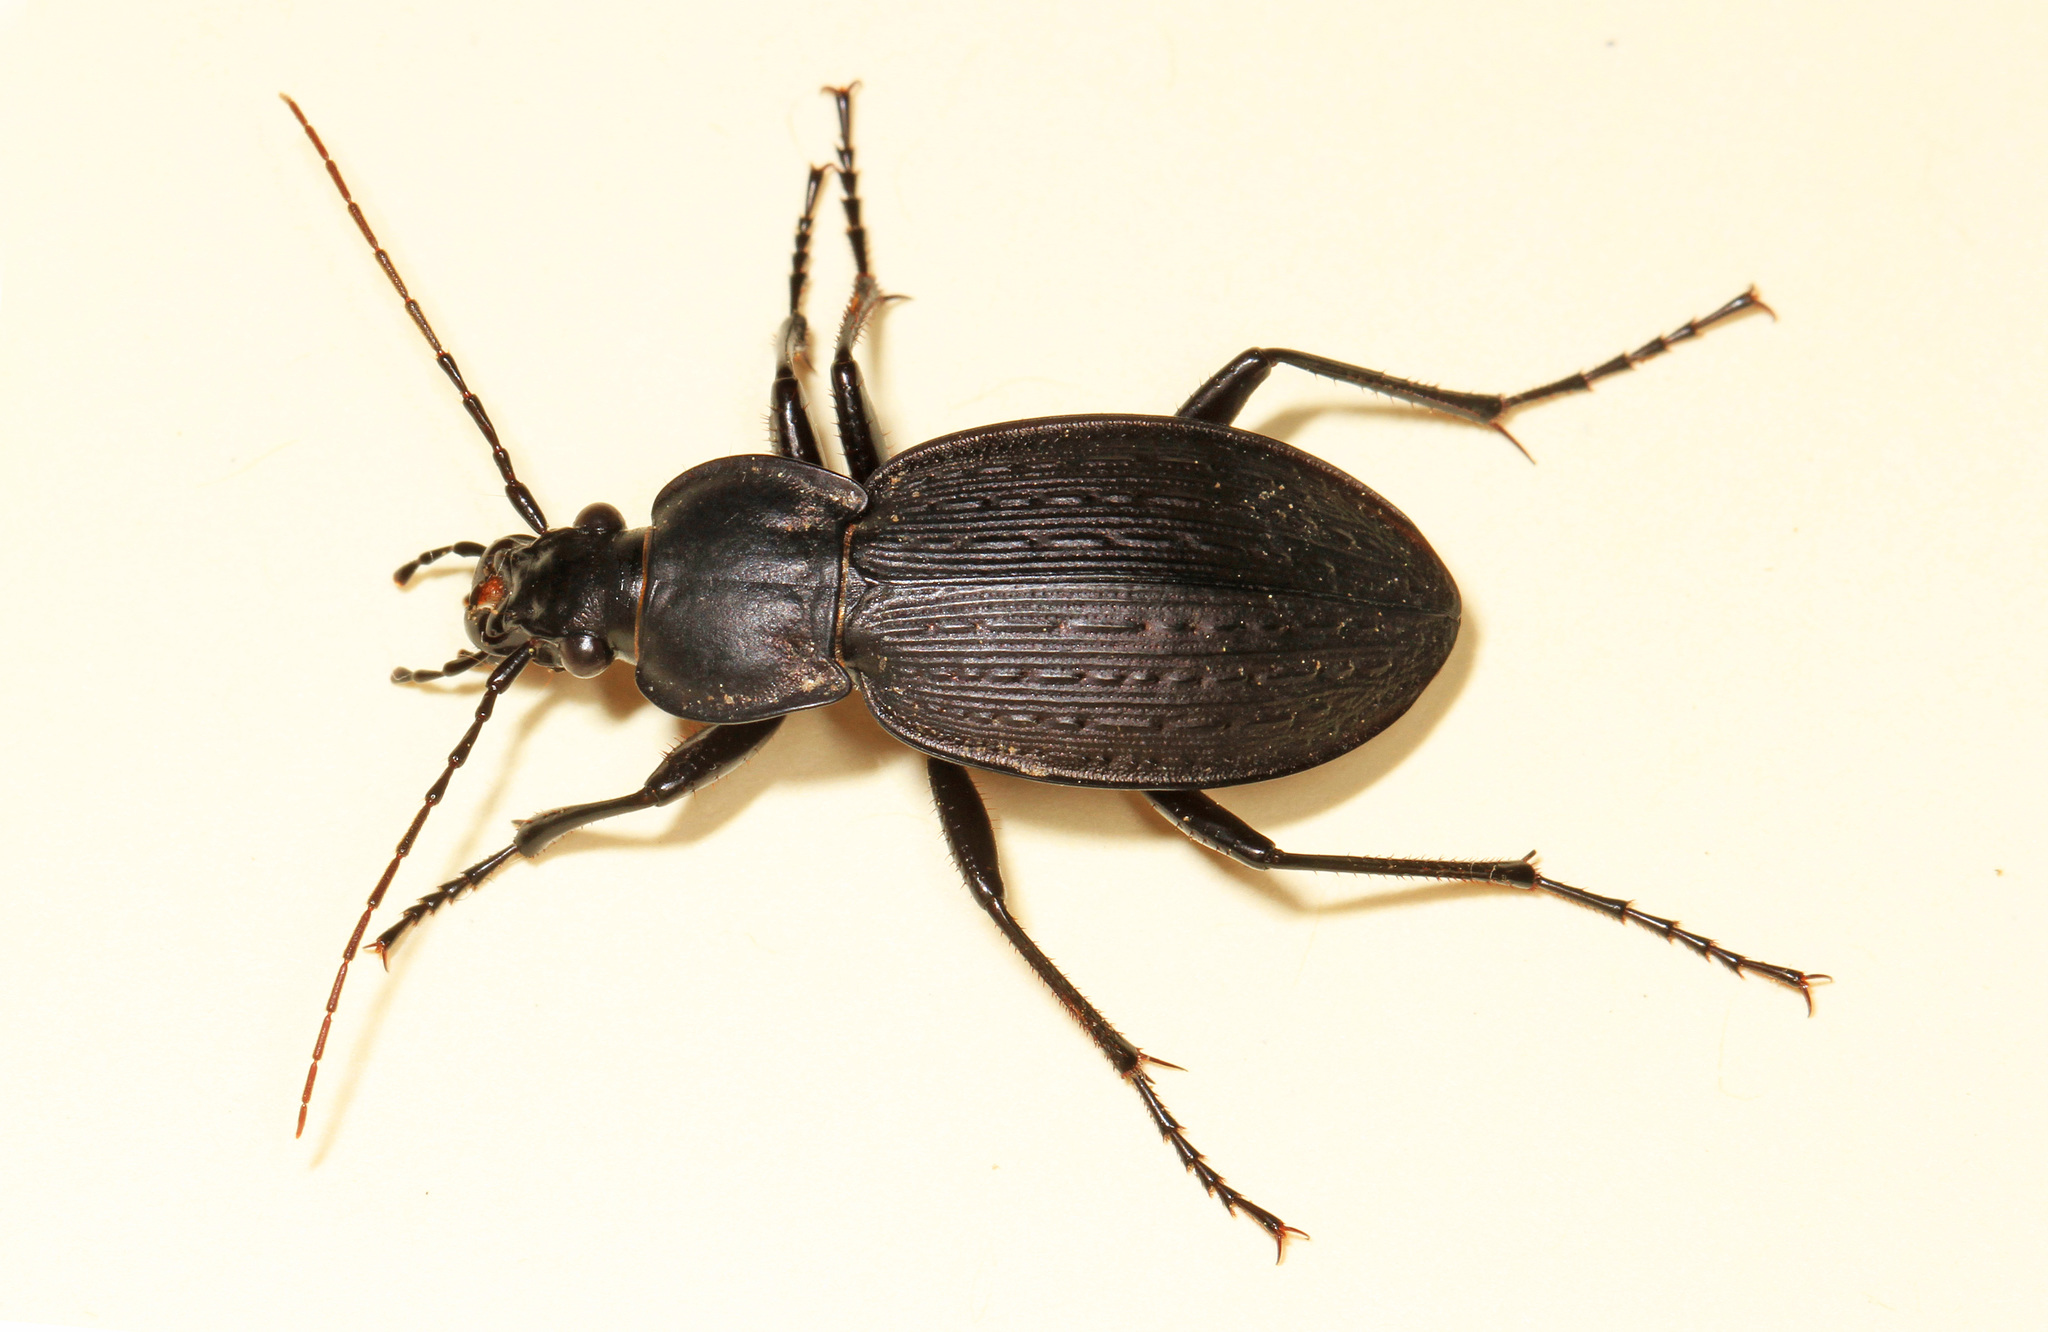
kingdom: Animalia
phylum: Arthropoda
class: Insecta
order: Coleoptera
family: Carabidae
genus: Carabus
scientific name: Carabus vinctus
